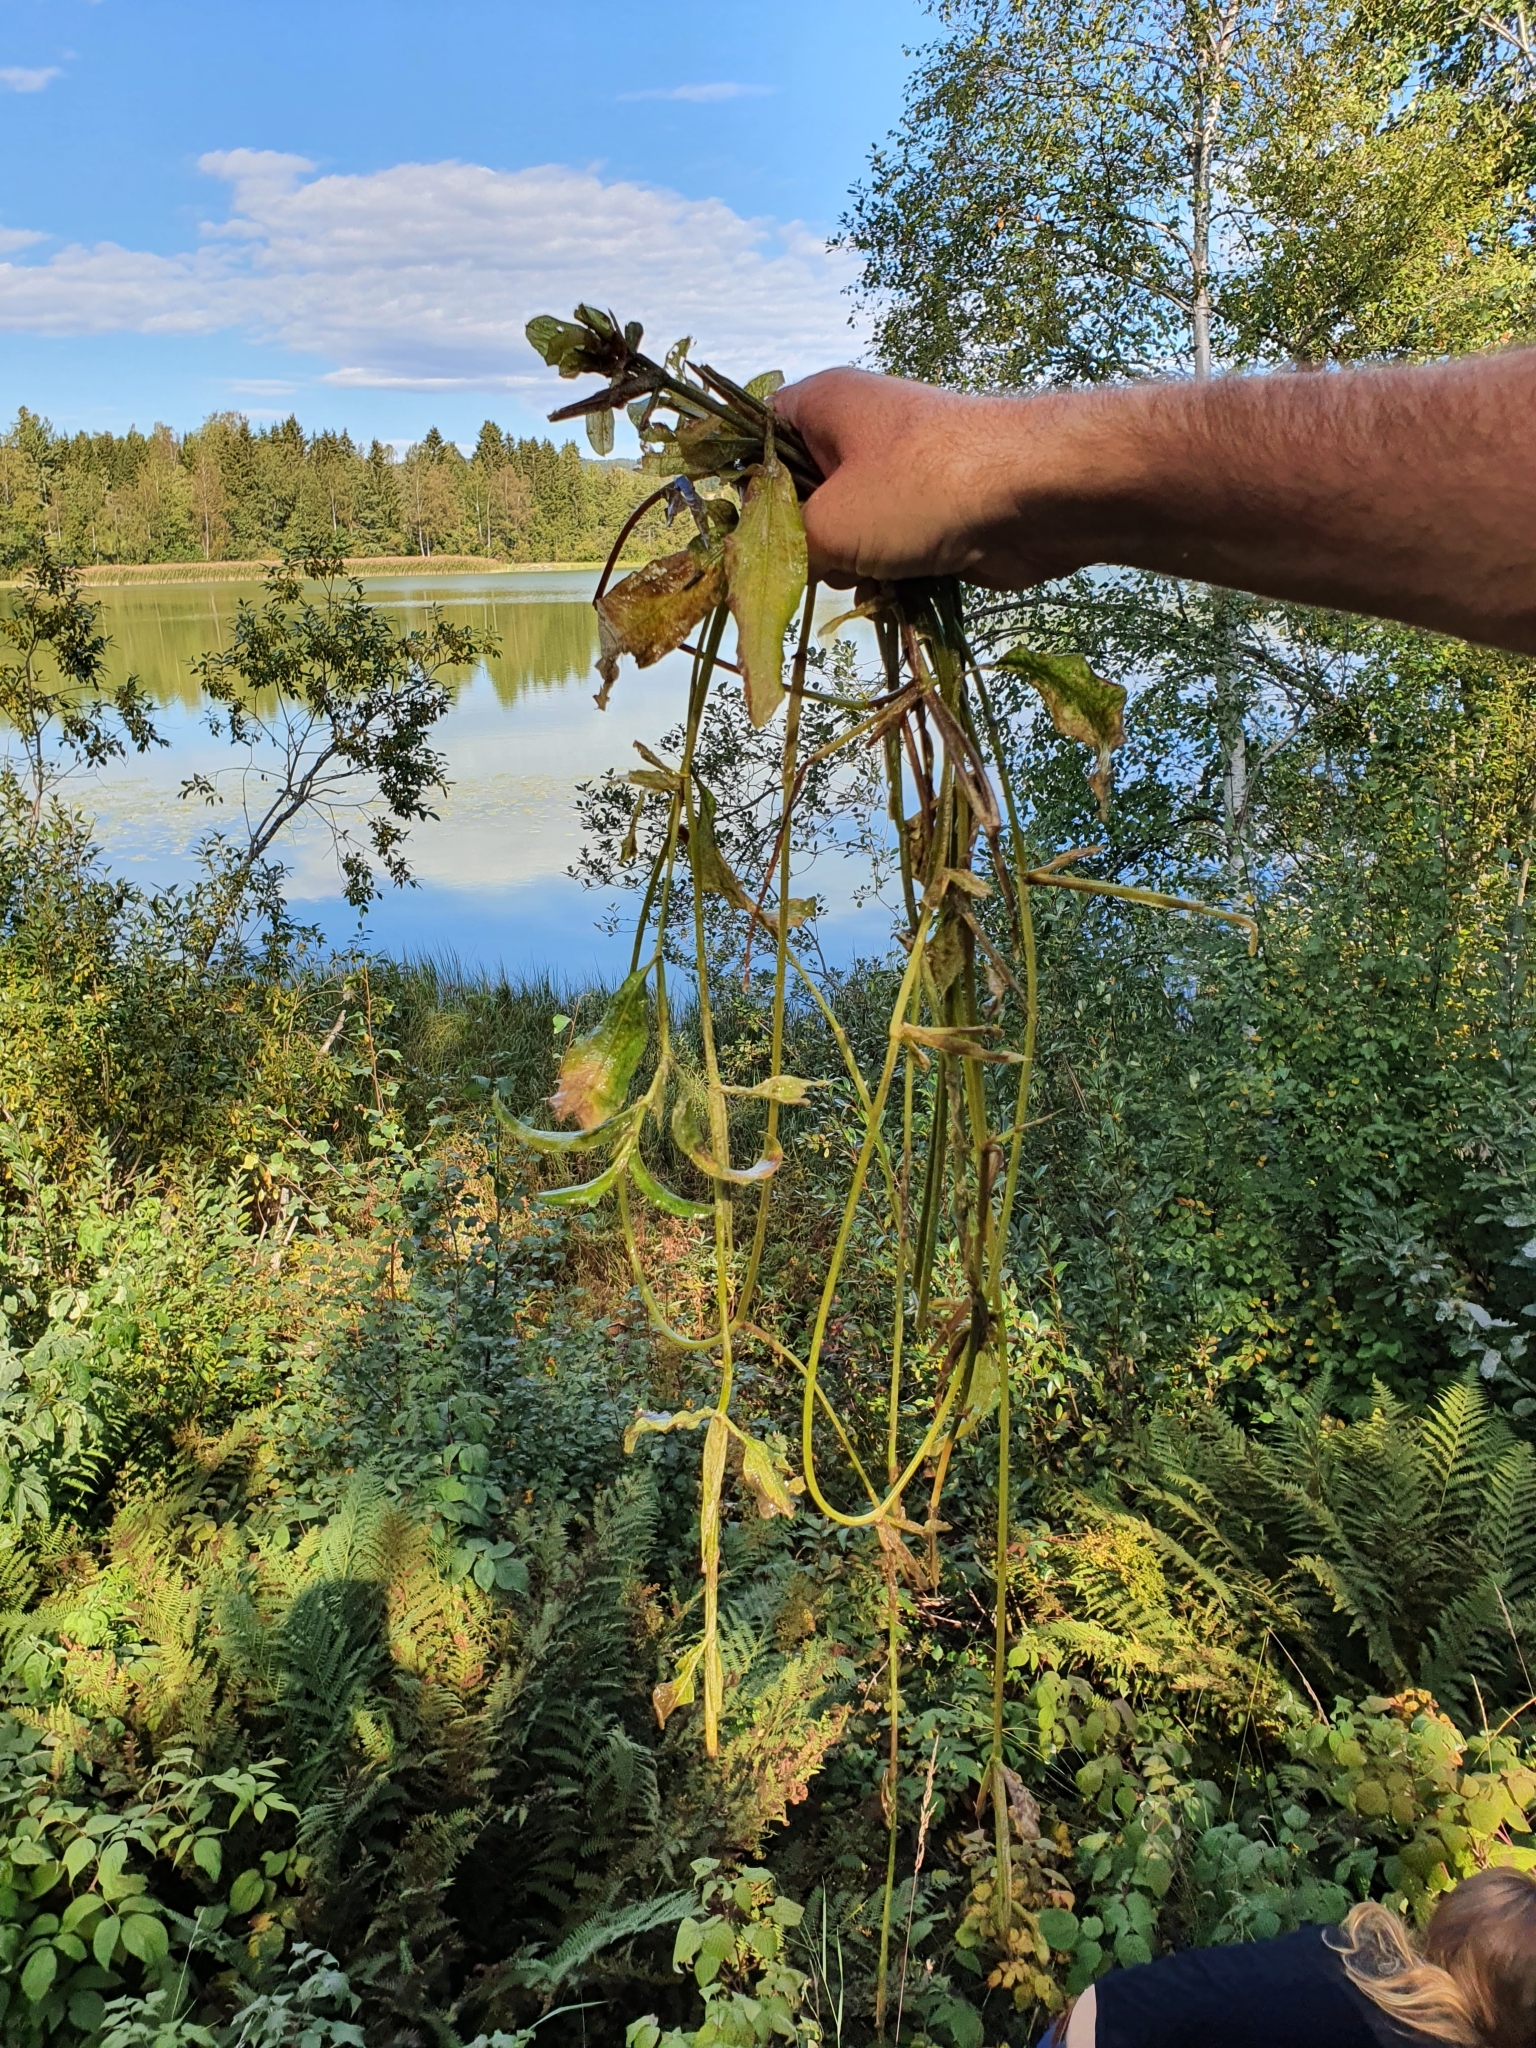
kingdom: Plantae
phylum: Tracheophyta
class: Liliopsida
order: Alismatales
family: Potamogetonaceae
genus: Potamogeton
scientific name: Potamogeton lucens
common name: Shining pondweed
